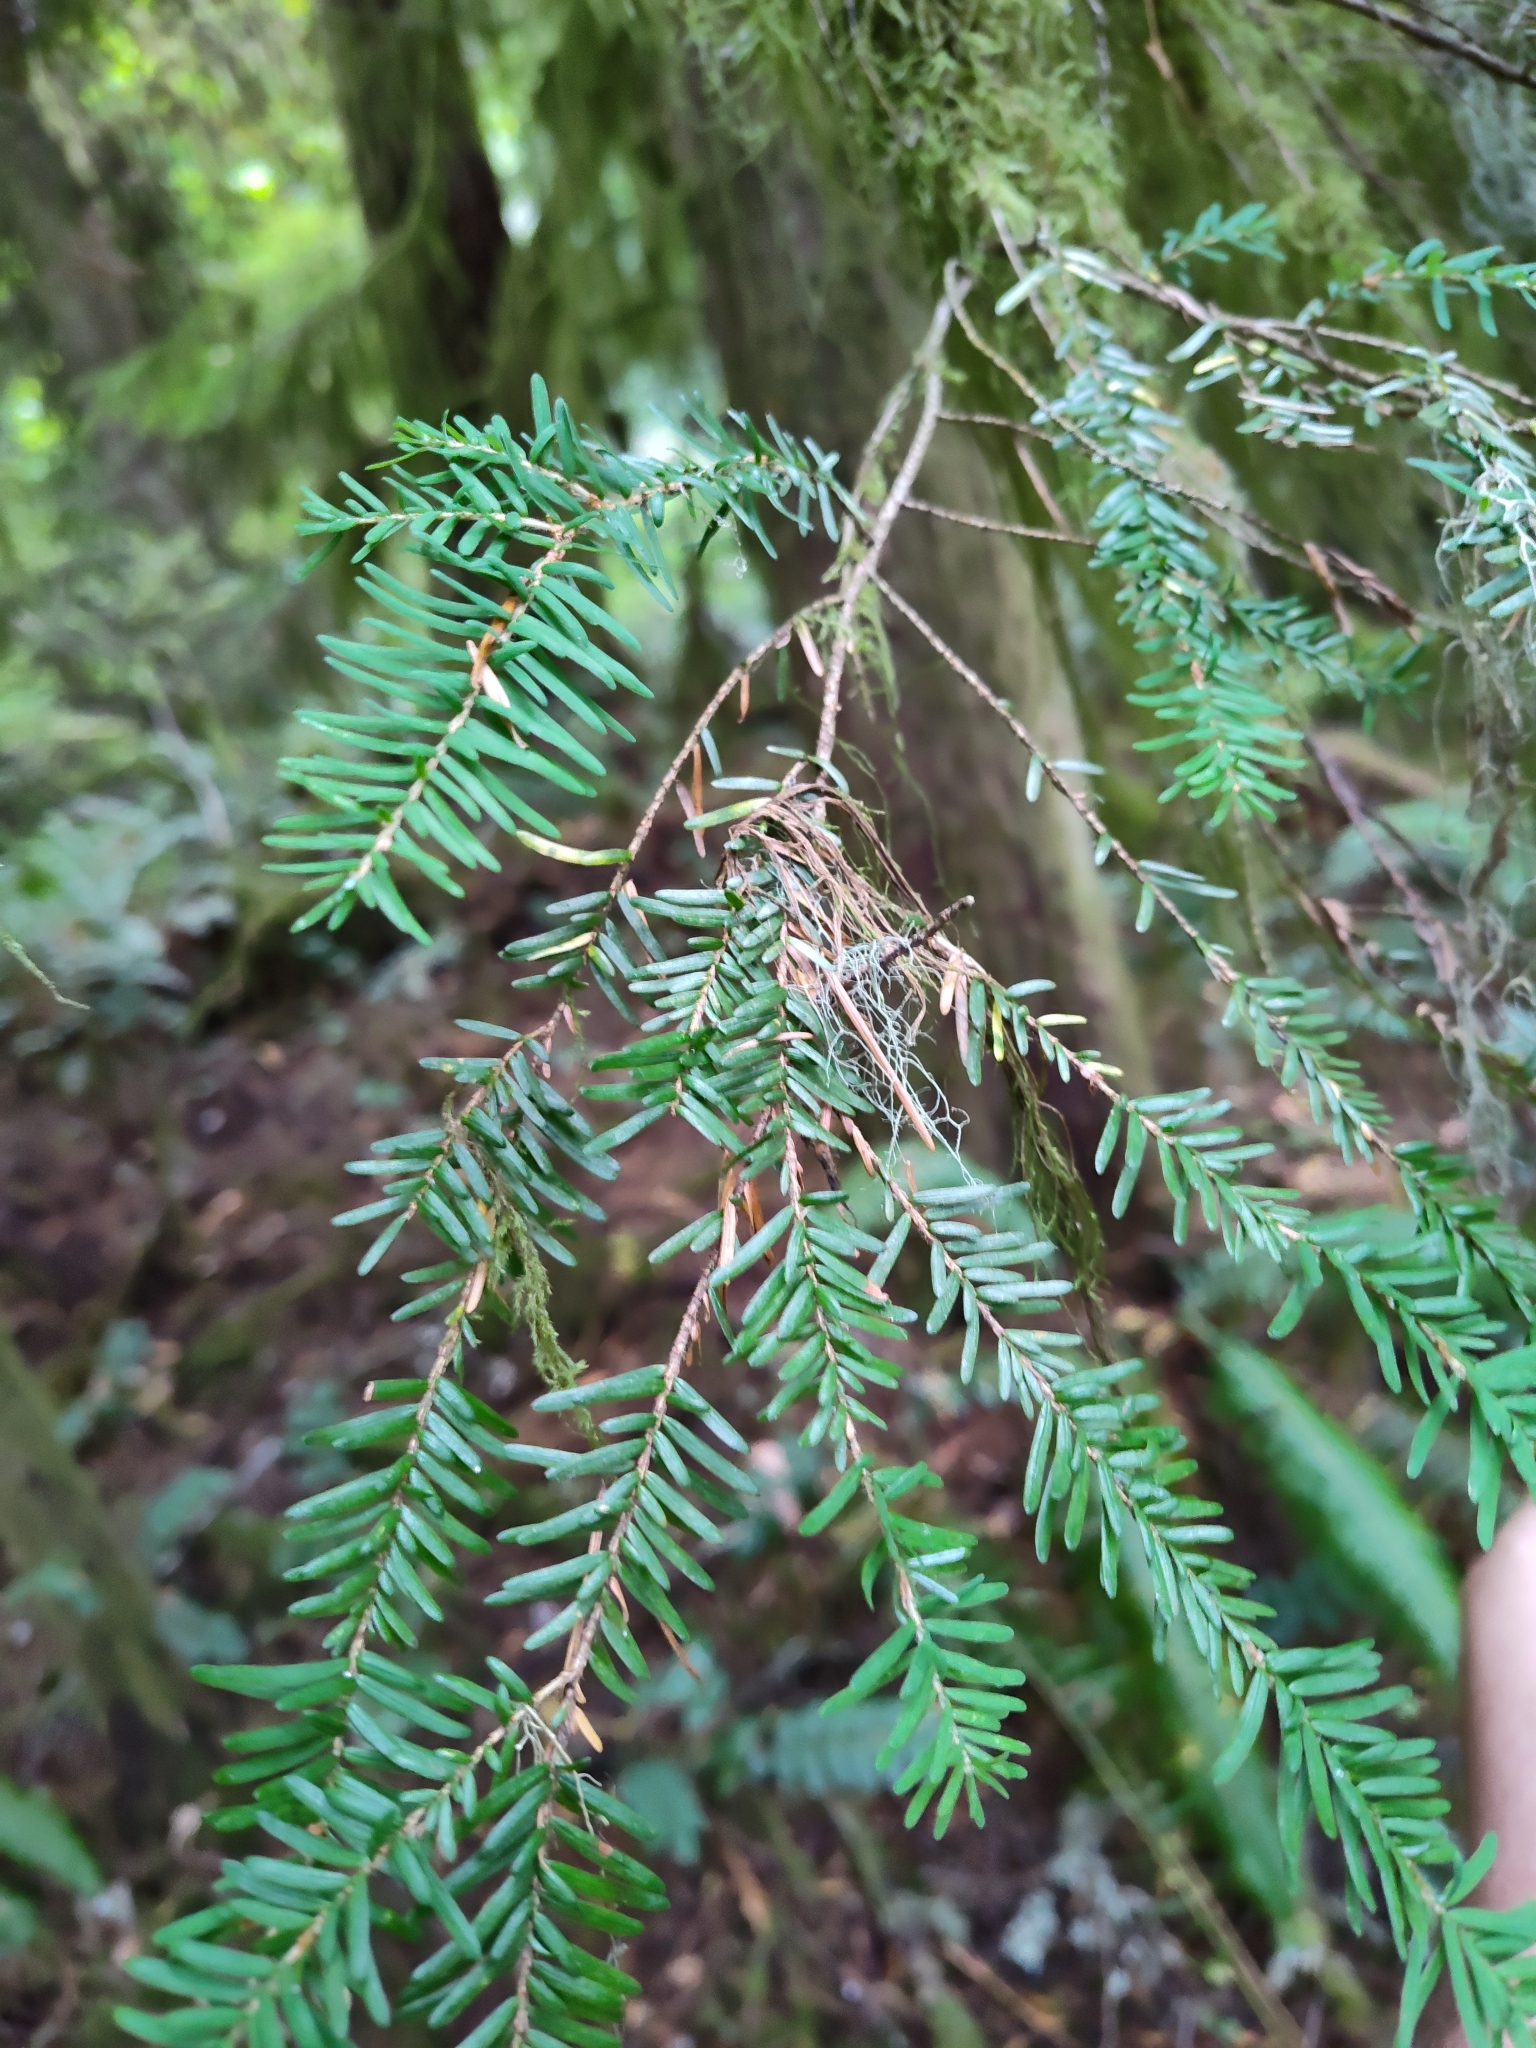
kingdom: Plantae
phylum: Tracheophyta
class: Pinopsida
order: Pinales
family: Pinaceae
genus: Tsuga
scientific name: Tsuga heterophylla
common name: Western hemlock
